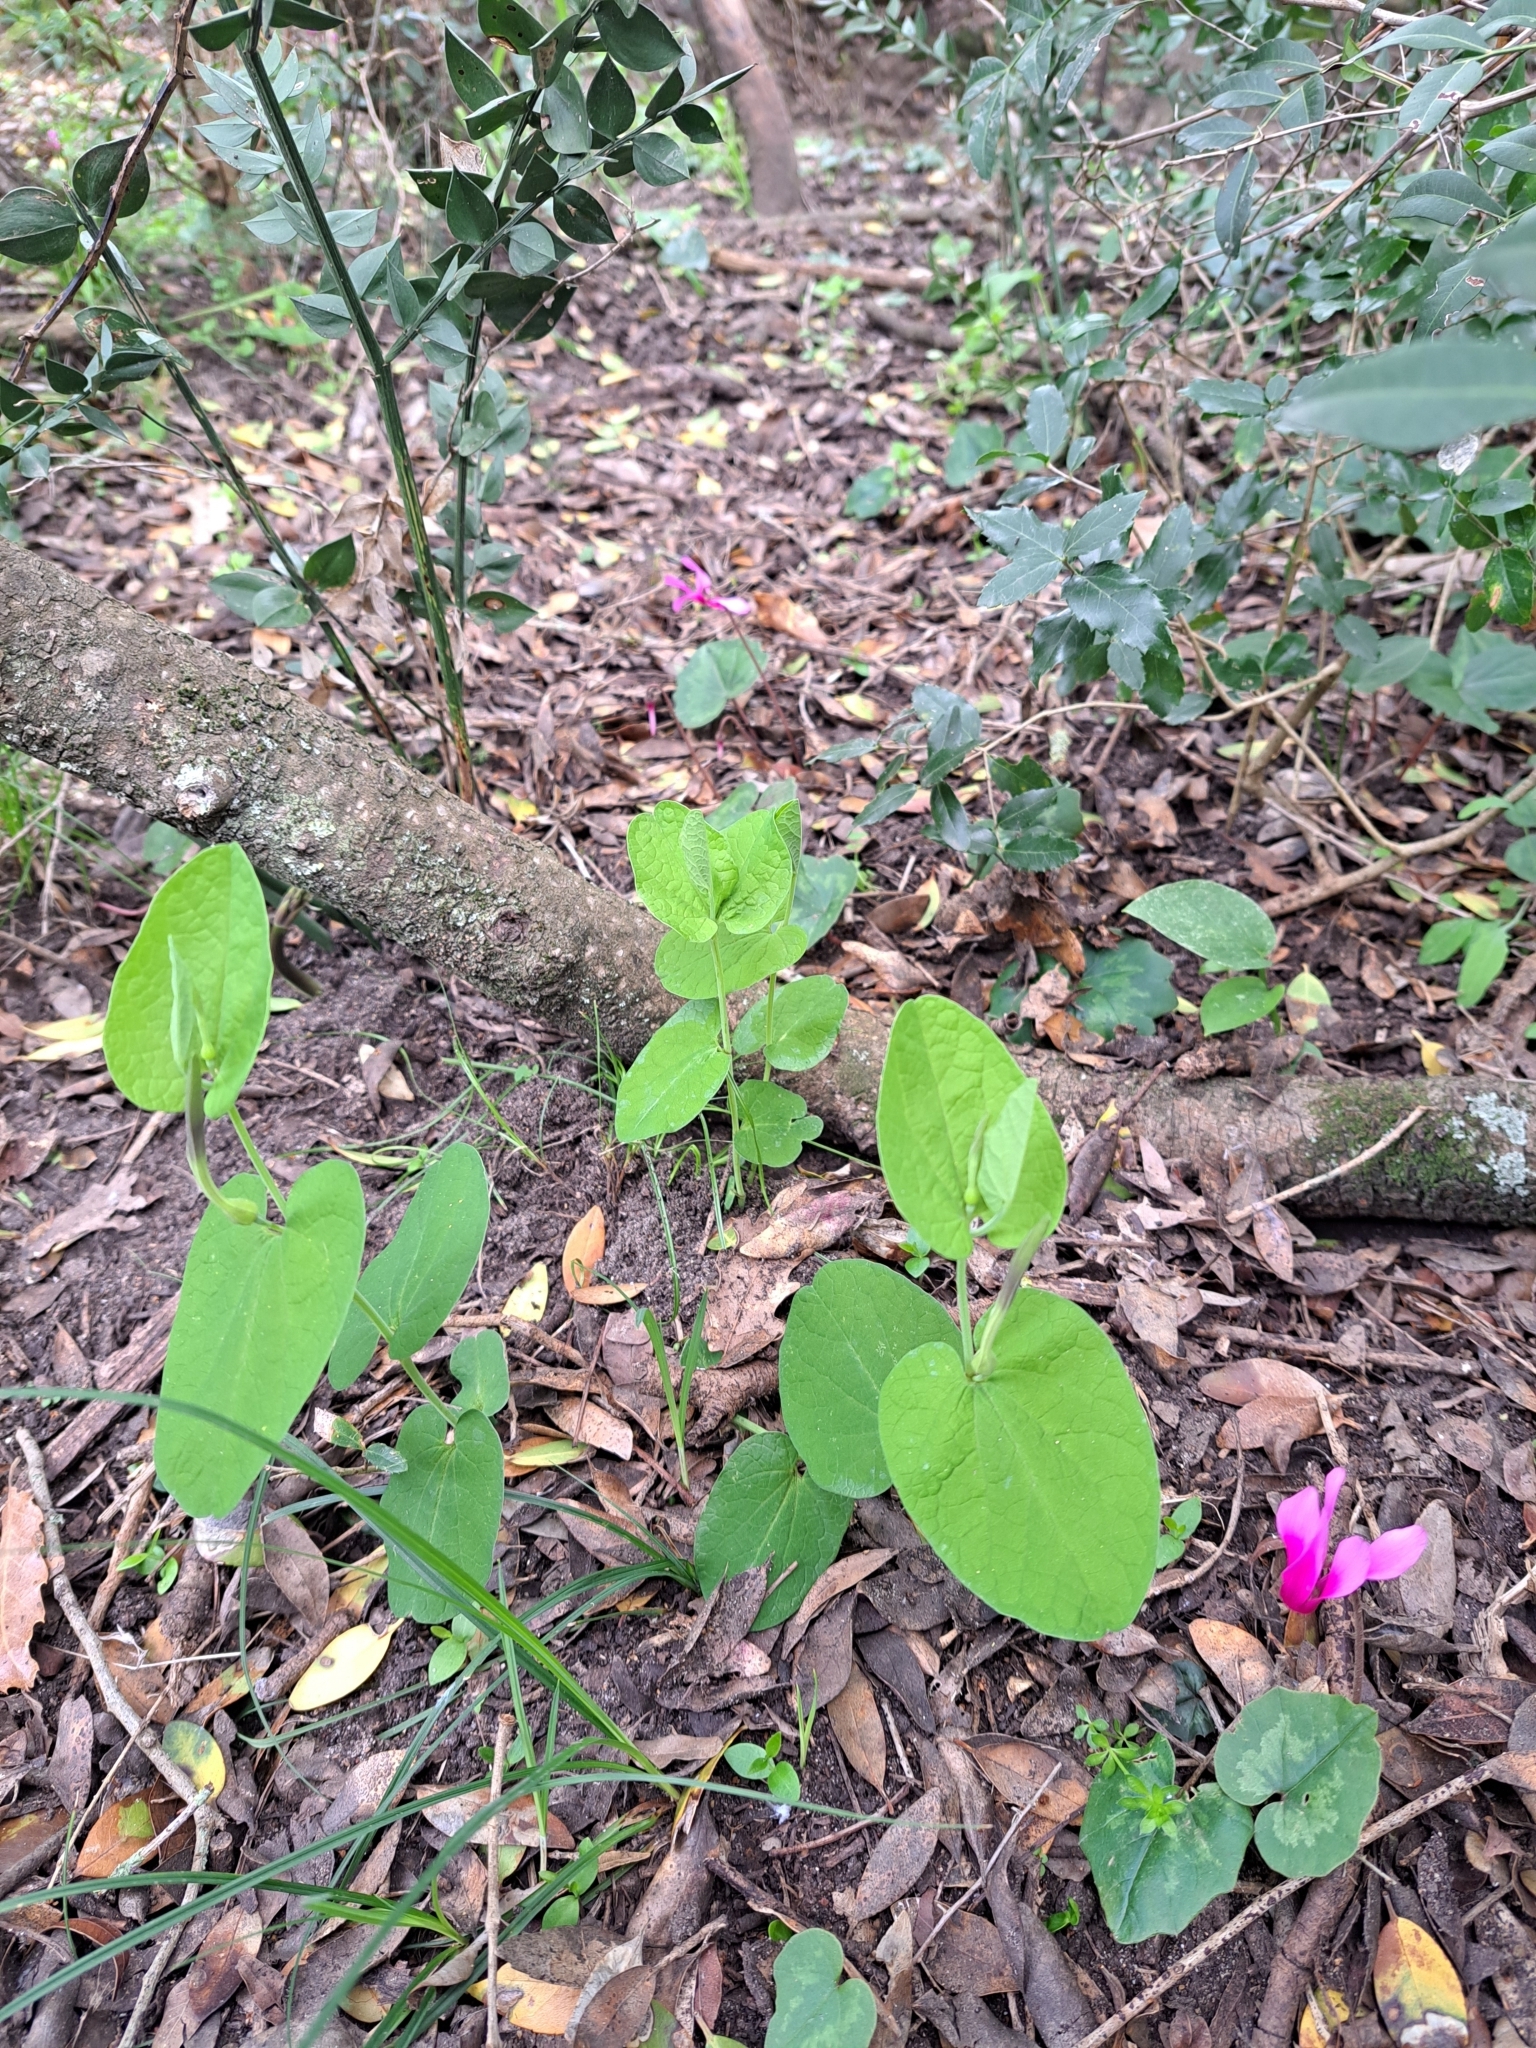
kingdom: Plantae
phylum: Tracheophyta
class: Magnoliopsida
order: Piperales
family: Aristolochiaceae
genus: Aristolochia
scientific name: Aristolochia rotunda
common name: Smearwort
